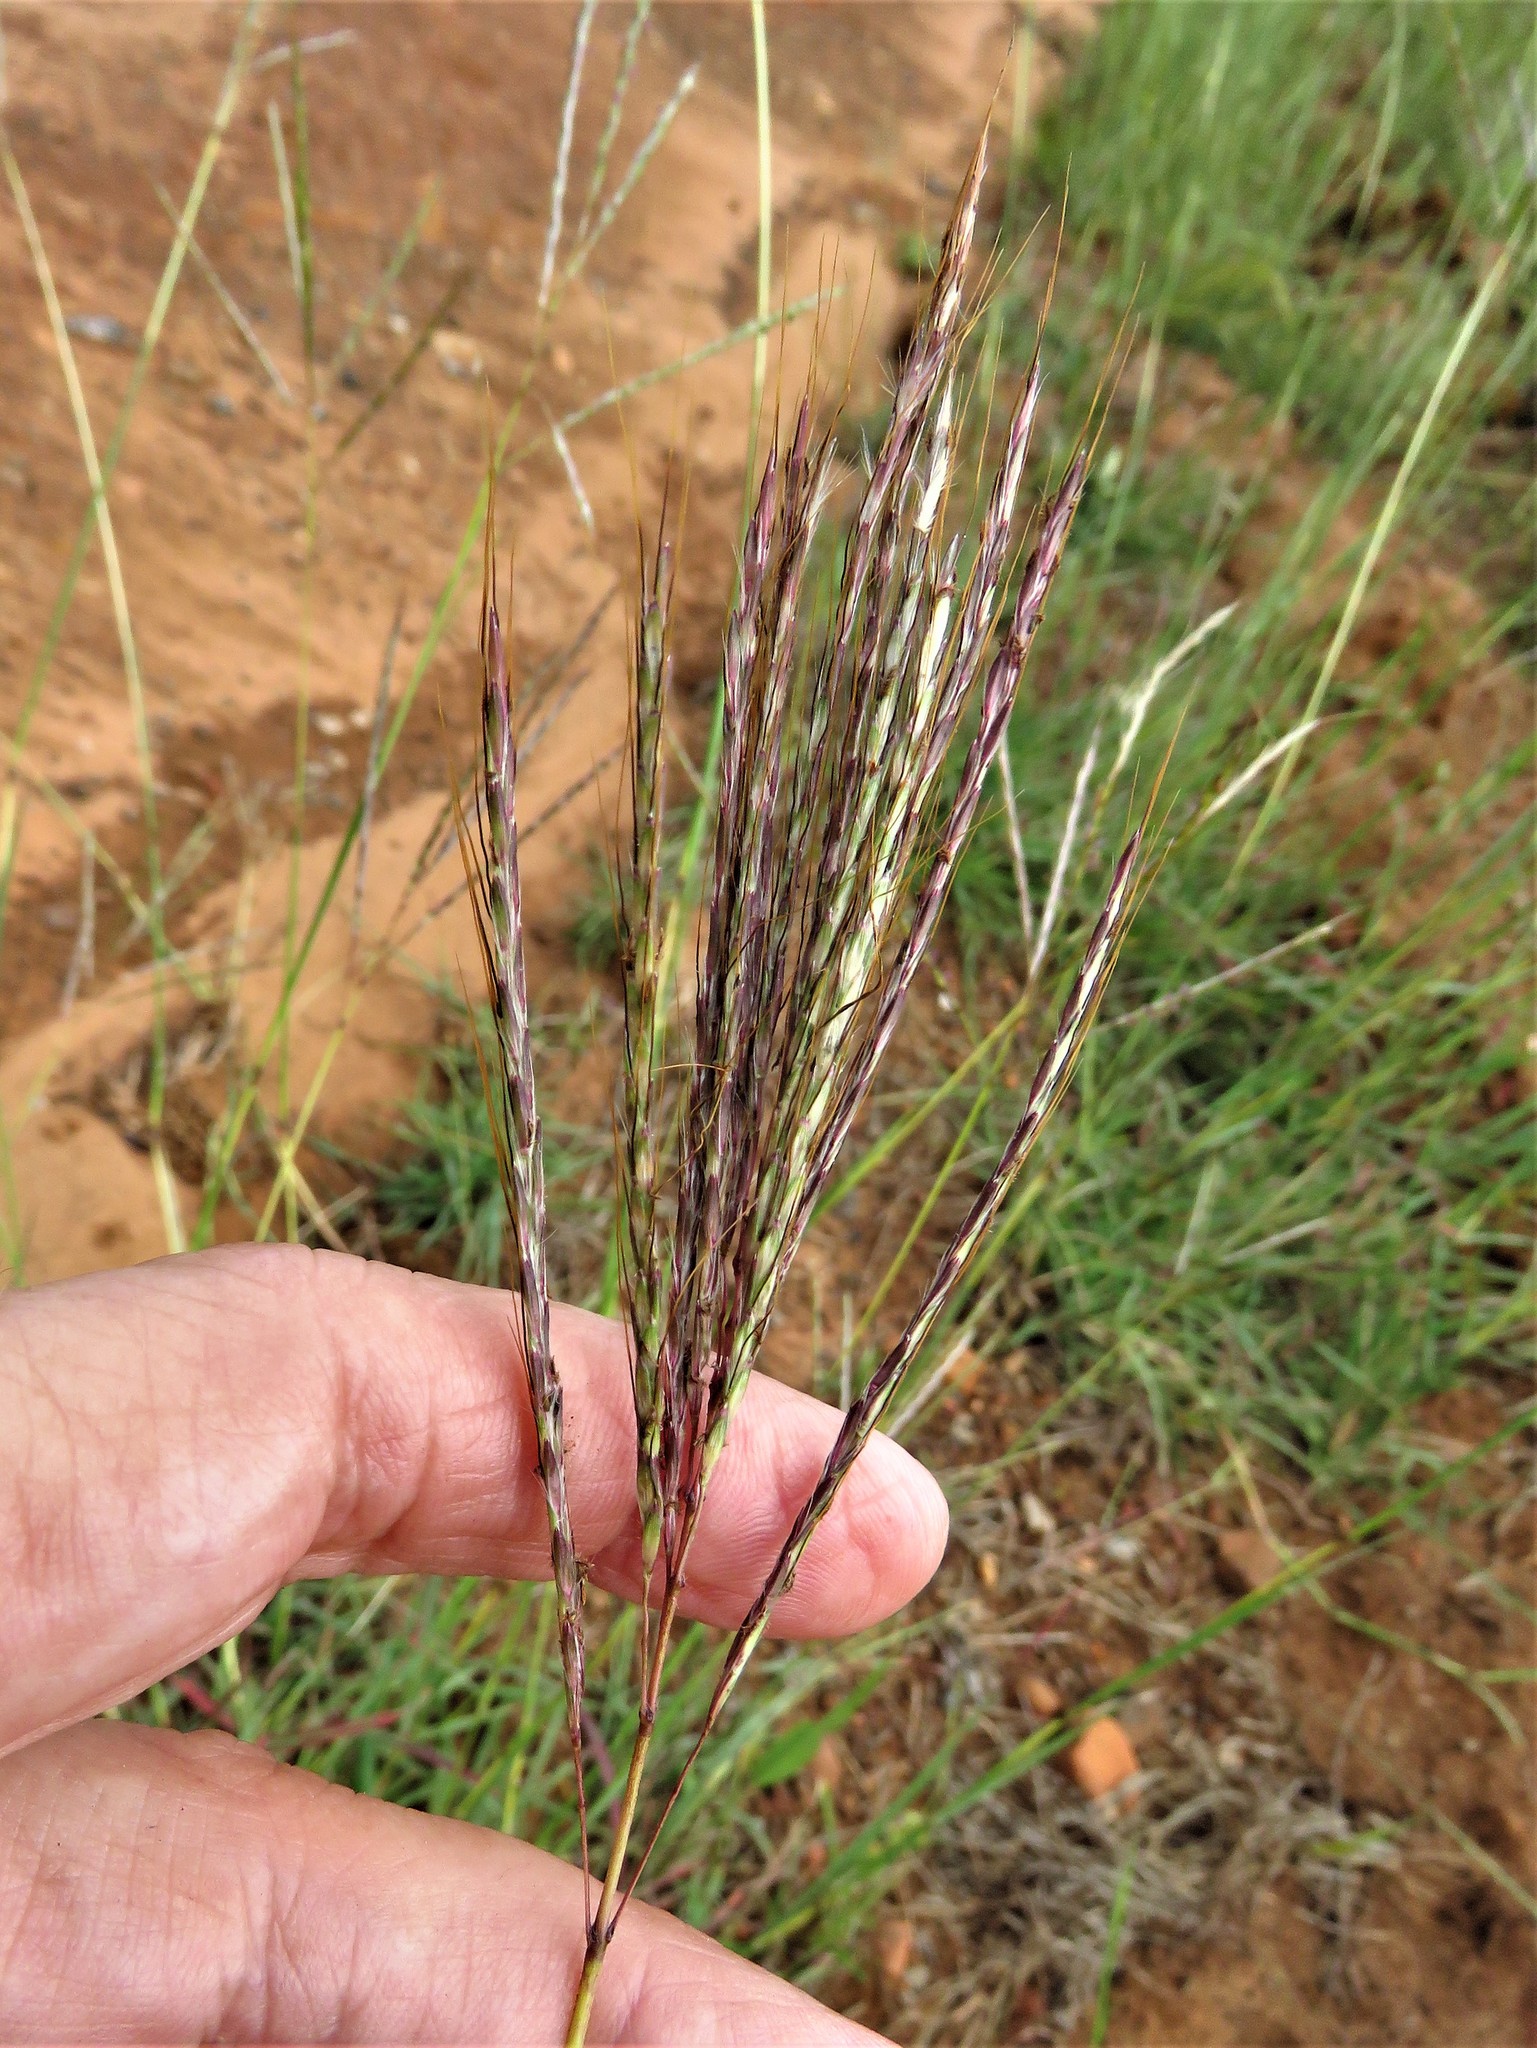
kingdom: Plantae
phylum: Tracheophyta
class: Liliopsida
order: Poales
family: Poaceae
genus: Bothriochloa
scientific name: Bothriochloa ischaemum
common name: Yellow bluestem
